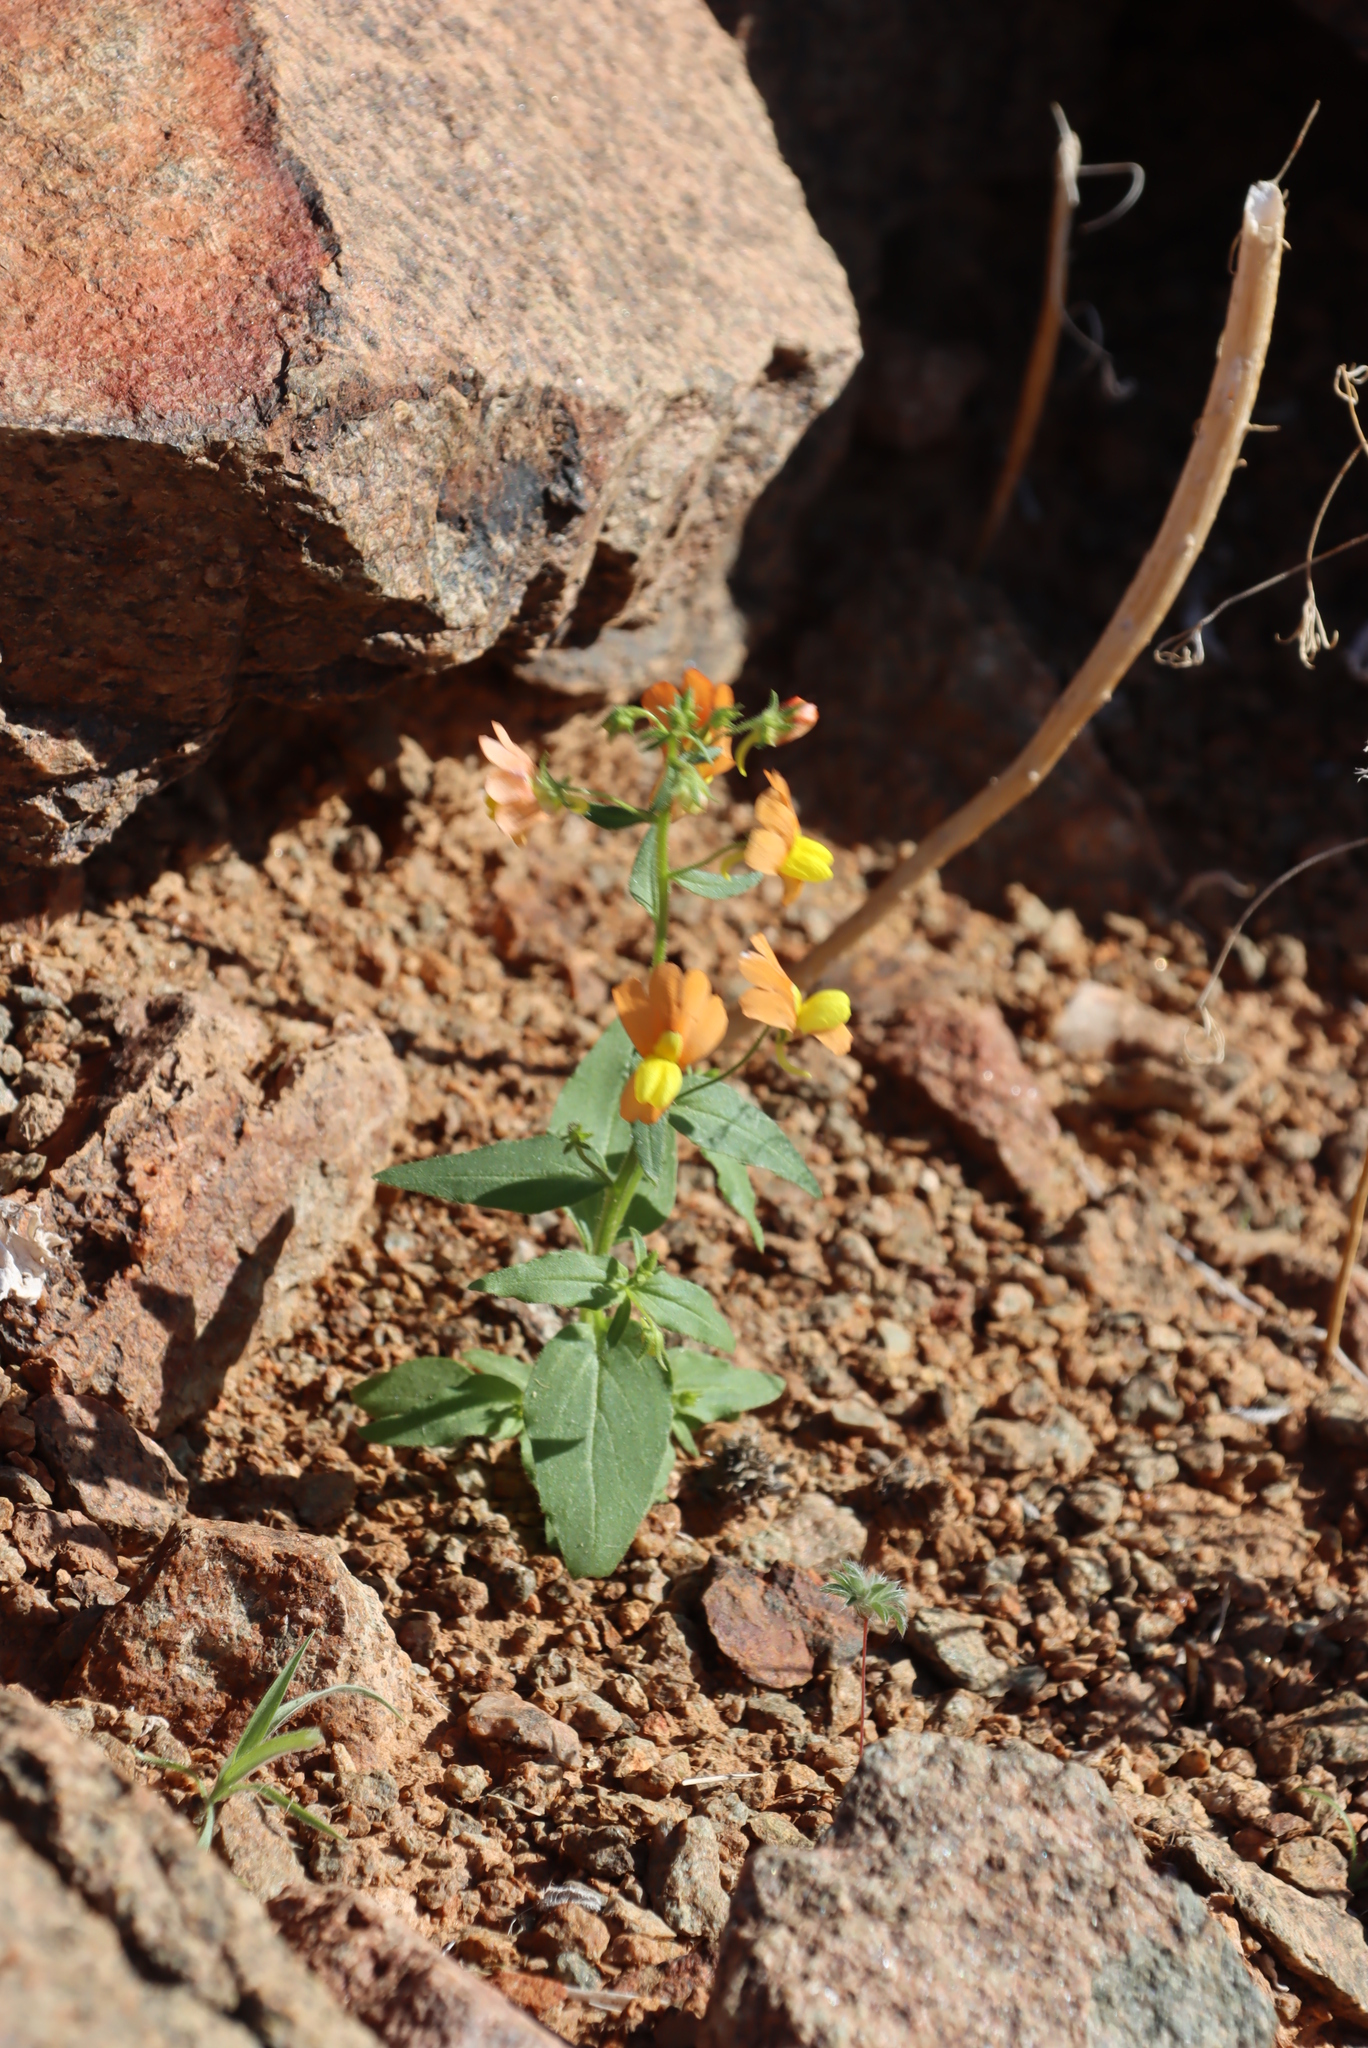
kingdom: Plantae
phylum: Tracheophyta
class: Magnoliopsida
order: Lamiales
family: Scrophulariaceae
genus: Nemesia
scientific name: Nemesia williamsonii
